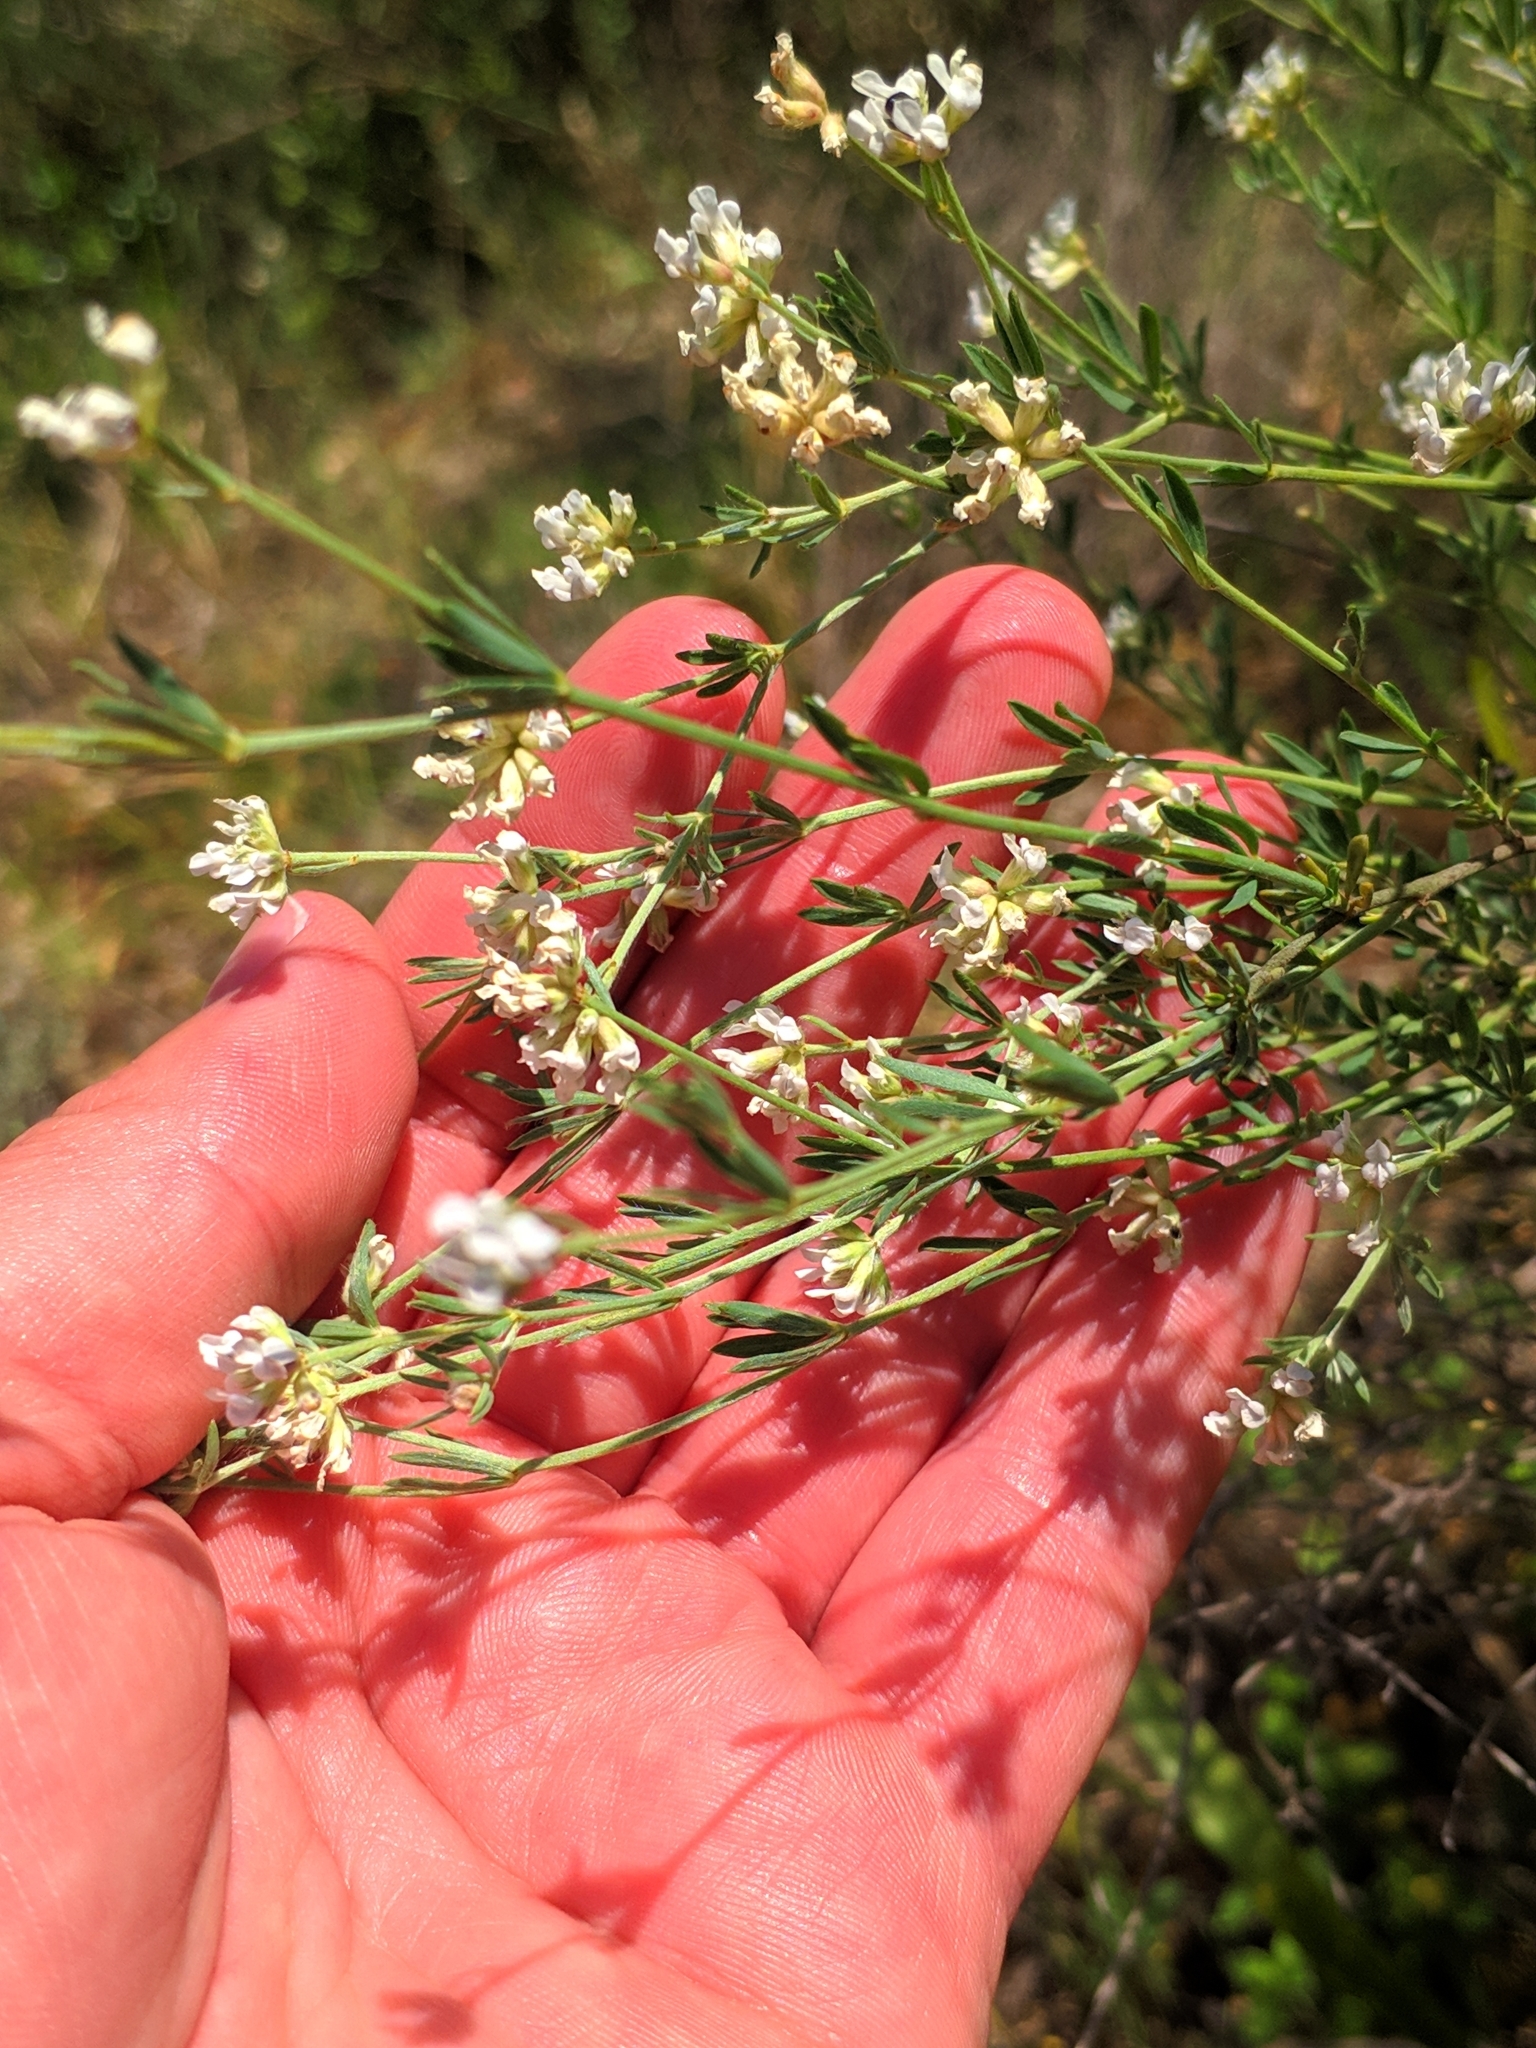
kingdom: Plantae
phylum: Tracheophyta
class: Magnoliopsida
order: Fabales
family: Fabaceae
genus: Lotus
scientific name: Lotus dorycnium
